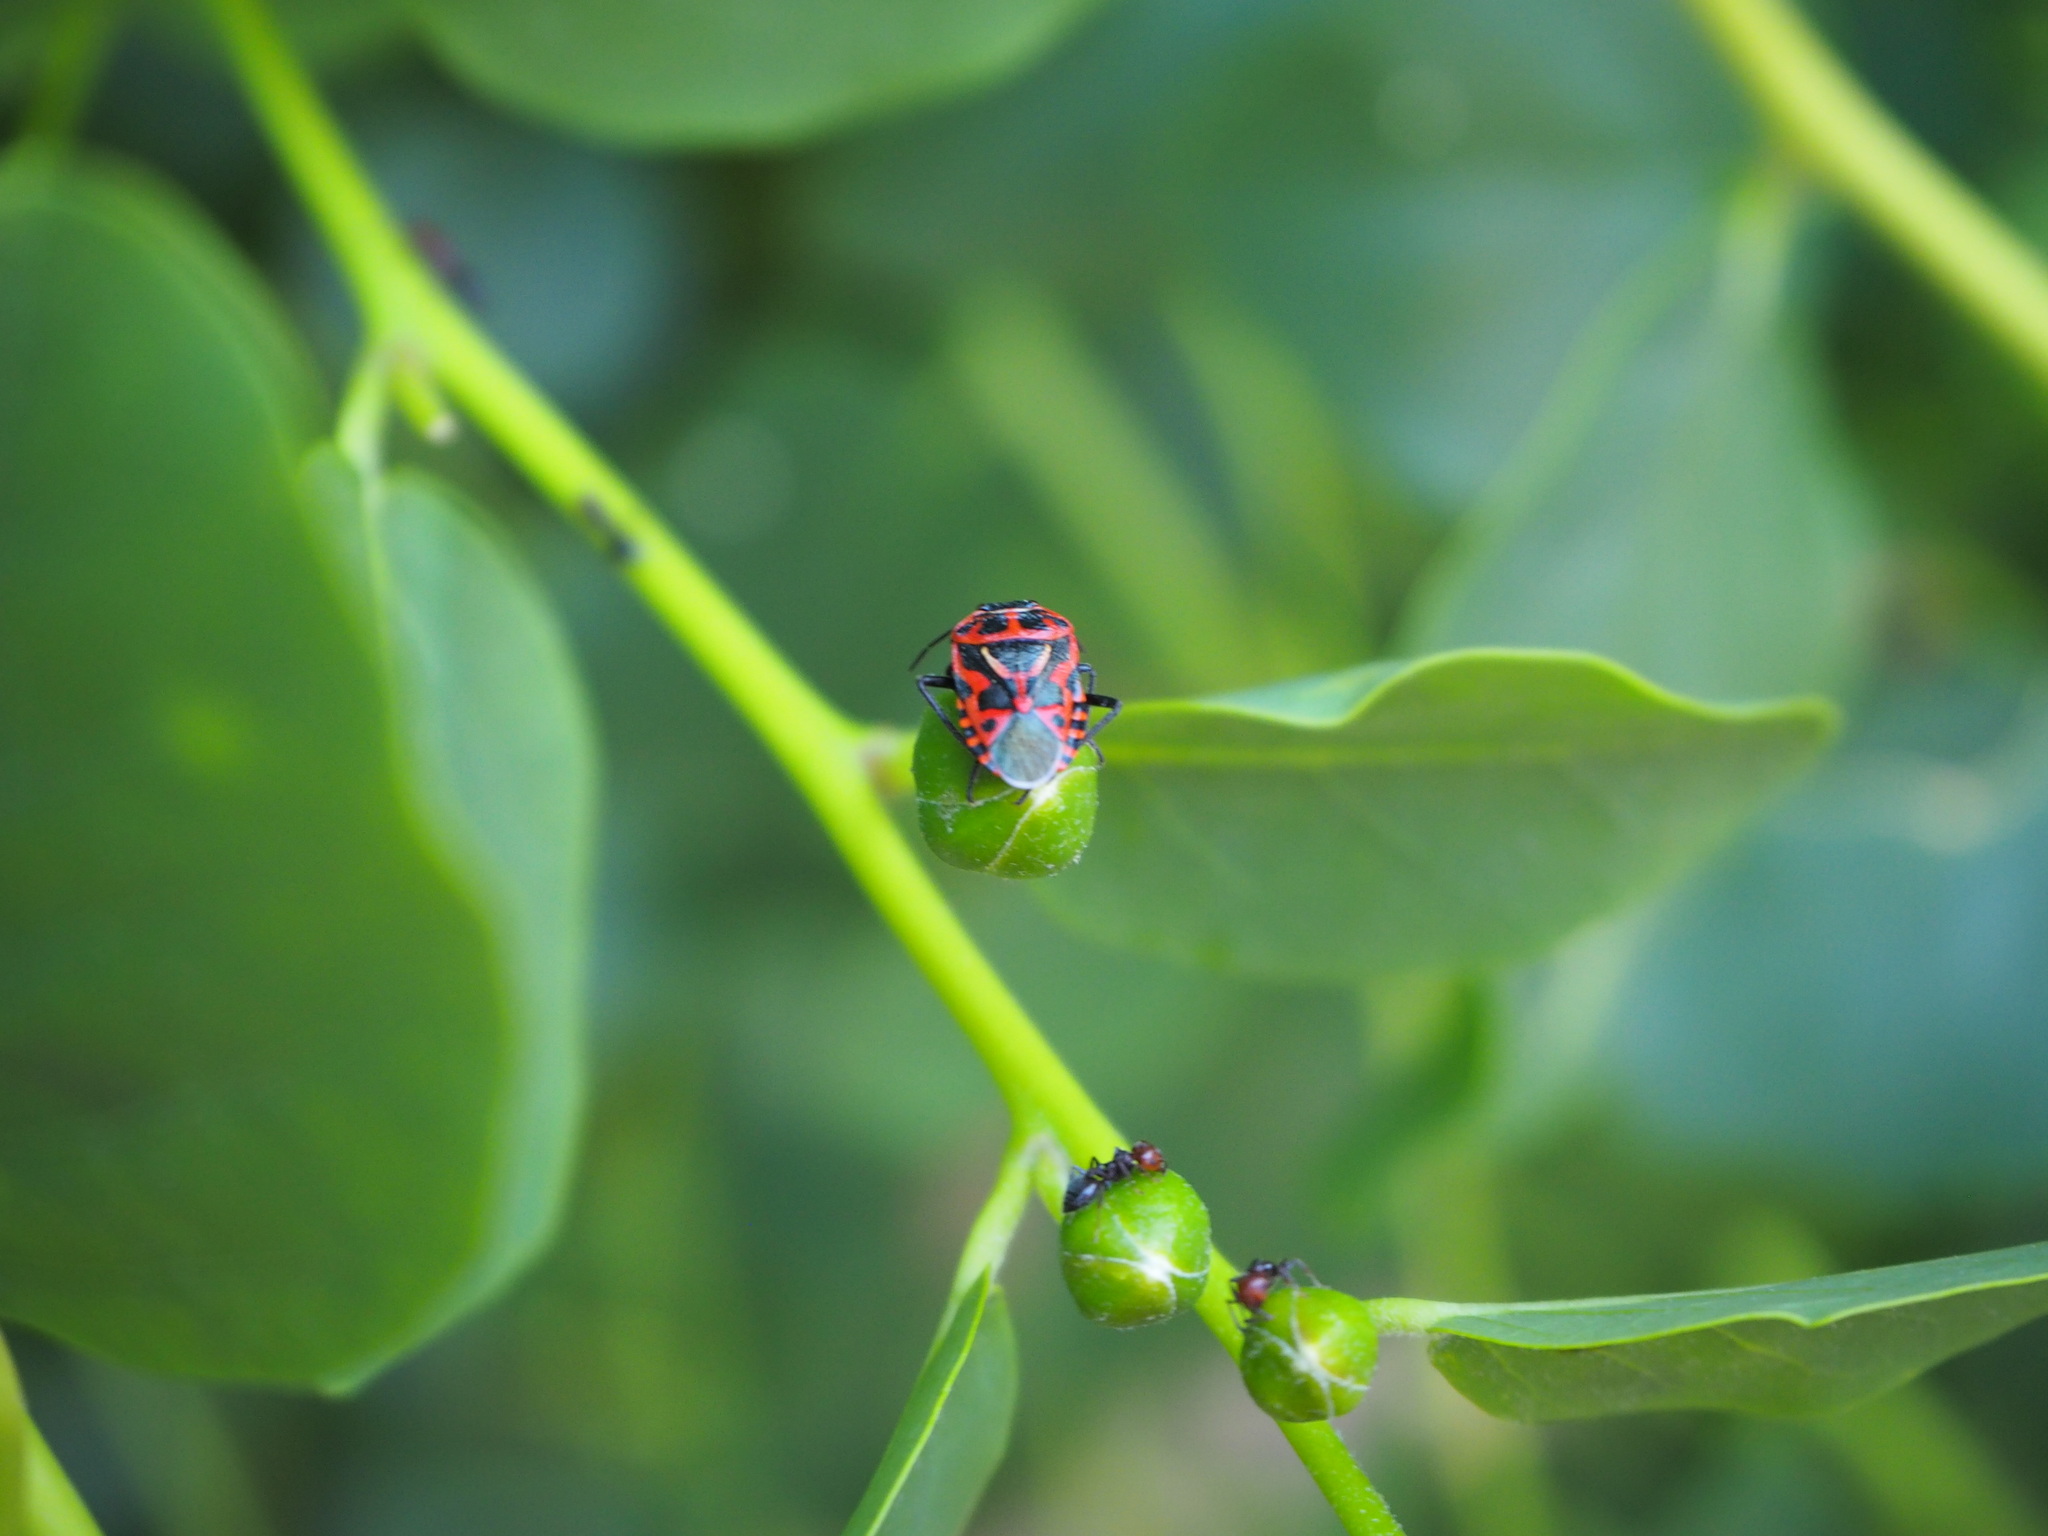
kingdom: Animalia
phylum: Arthropoda
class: Insecta
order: Hemiptera
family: Pentatomidae
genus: Eurydema
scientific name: Eurydema ventralis
